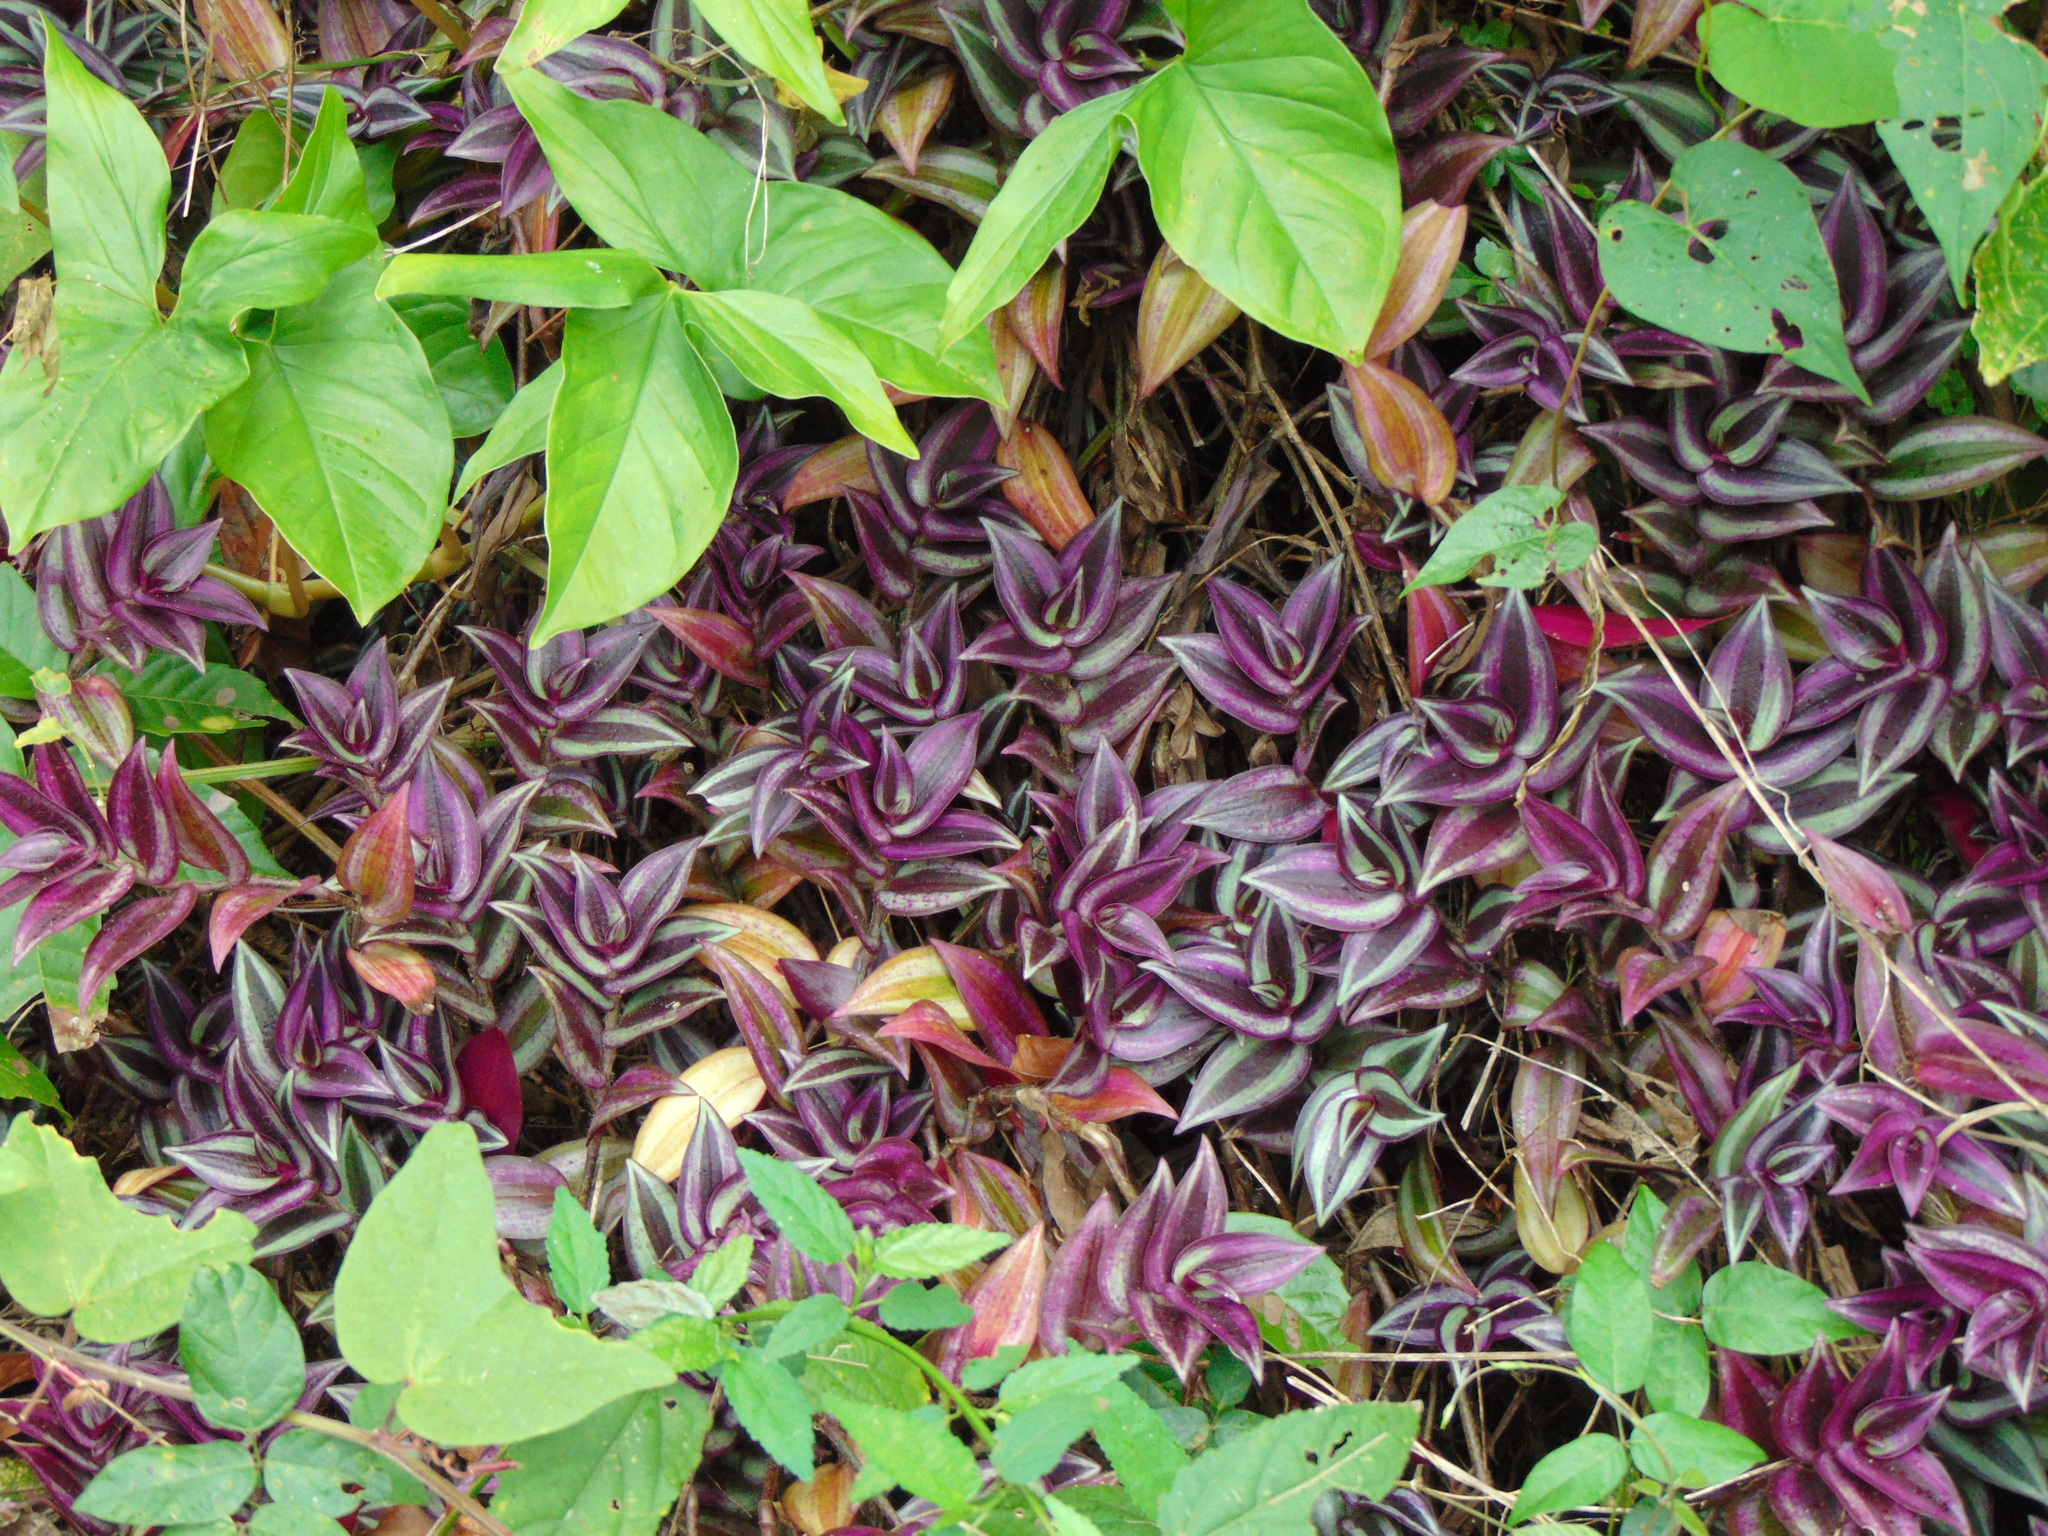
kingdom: Plantae
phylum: Tracheophyta
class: Liliopsida
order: Commelinales
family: Commelinaceae
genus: Tradescantia
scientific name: Tradescantia zebrina
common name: Inchplant
